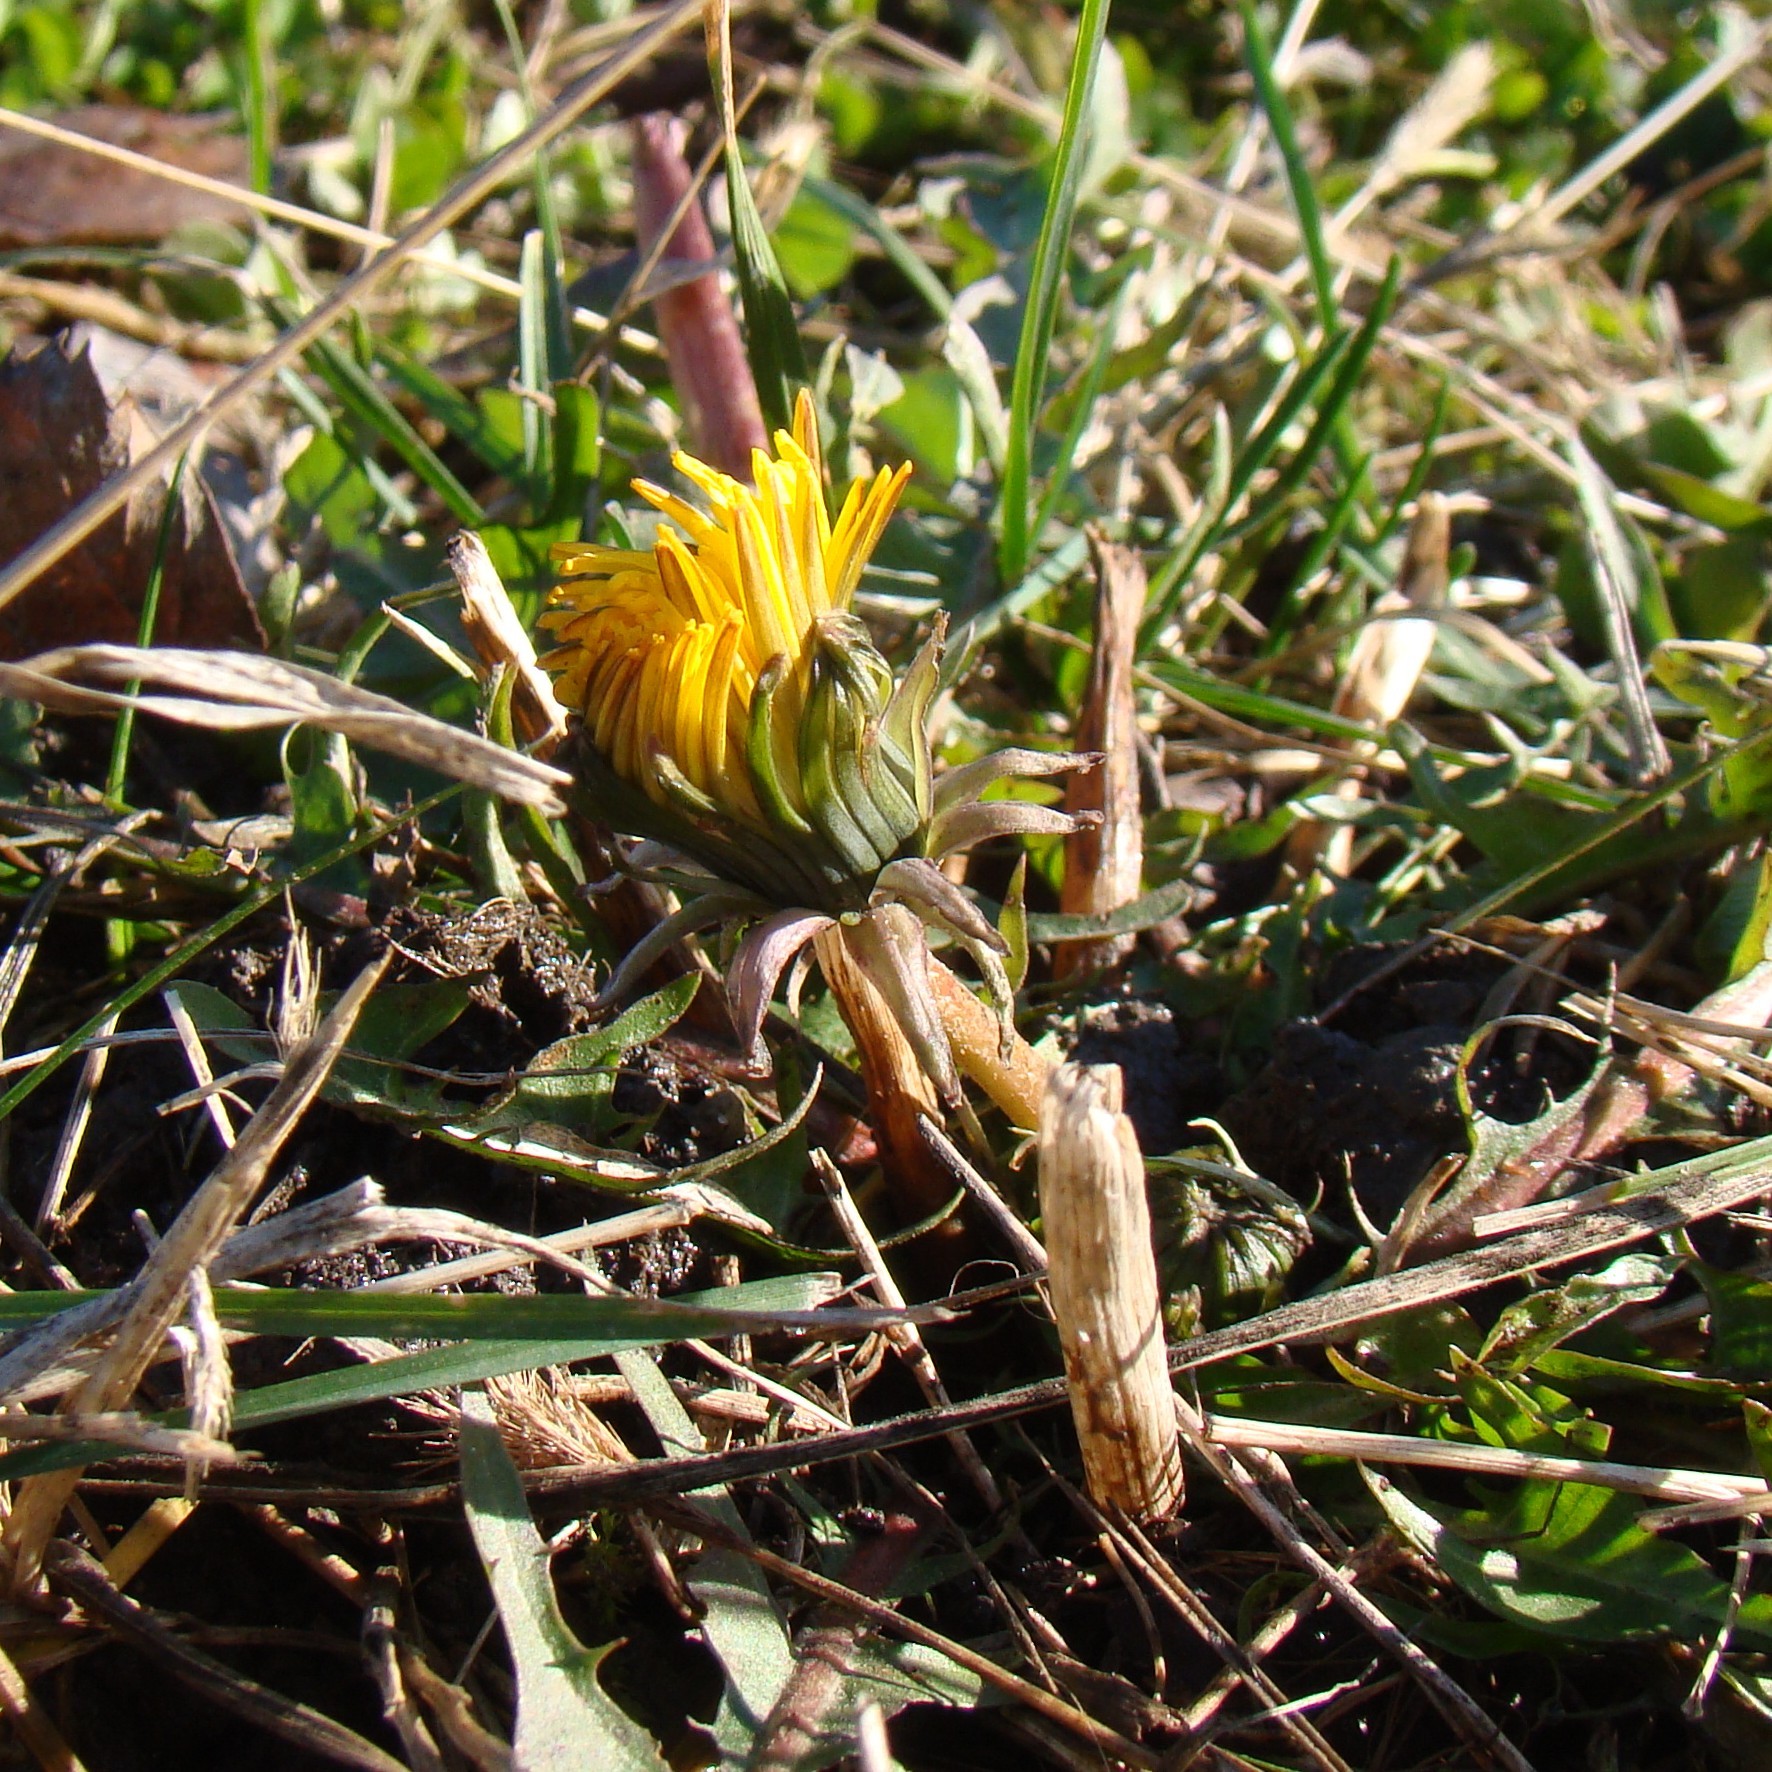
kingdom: Plantae
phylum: Tracheophyta
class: Magnoliopsida
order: Asterales
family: Asteraceae
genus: Taraxacum
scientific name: Taraxacum officinale
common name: Common dandelion
